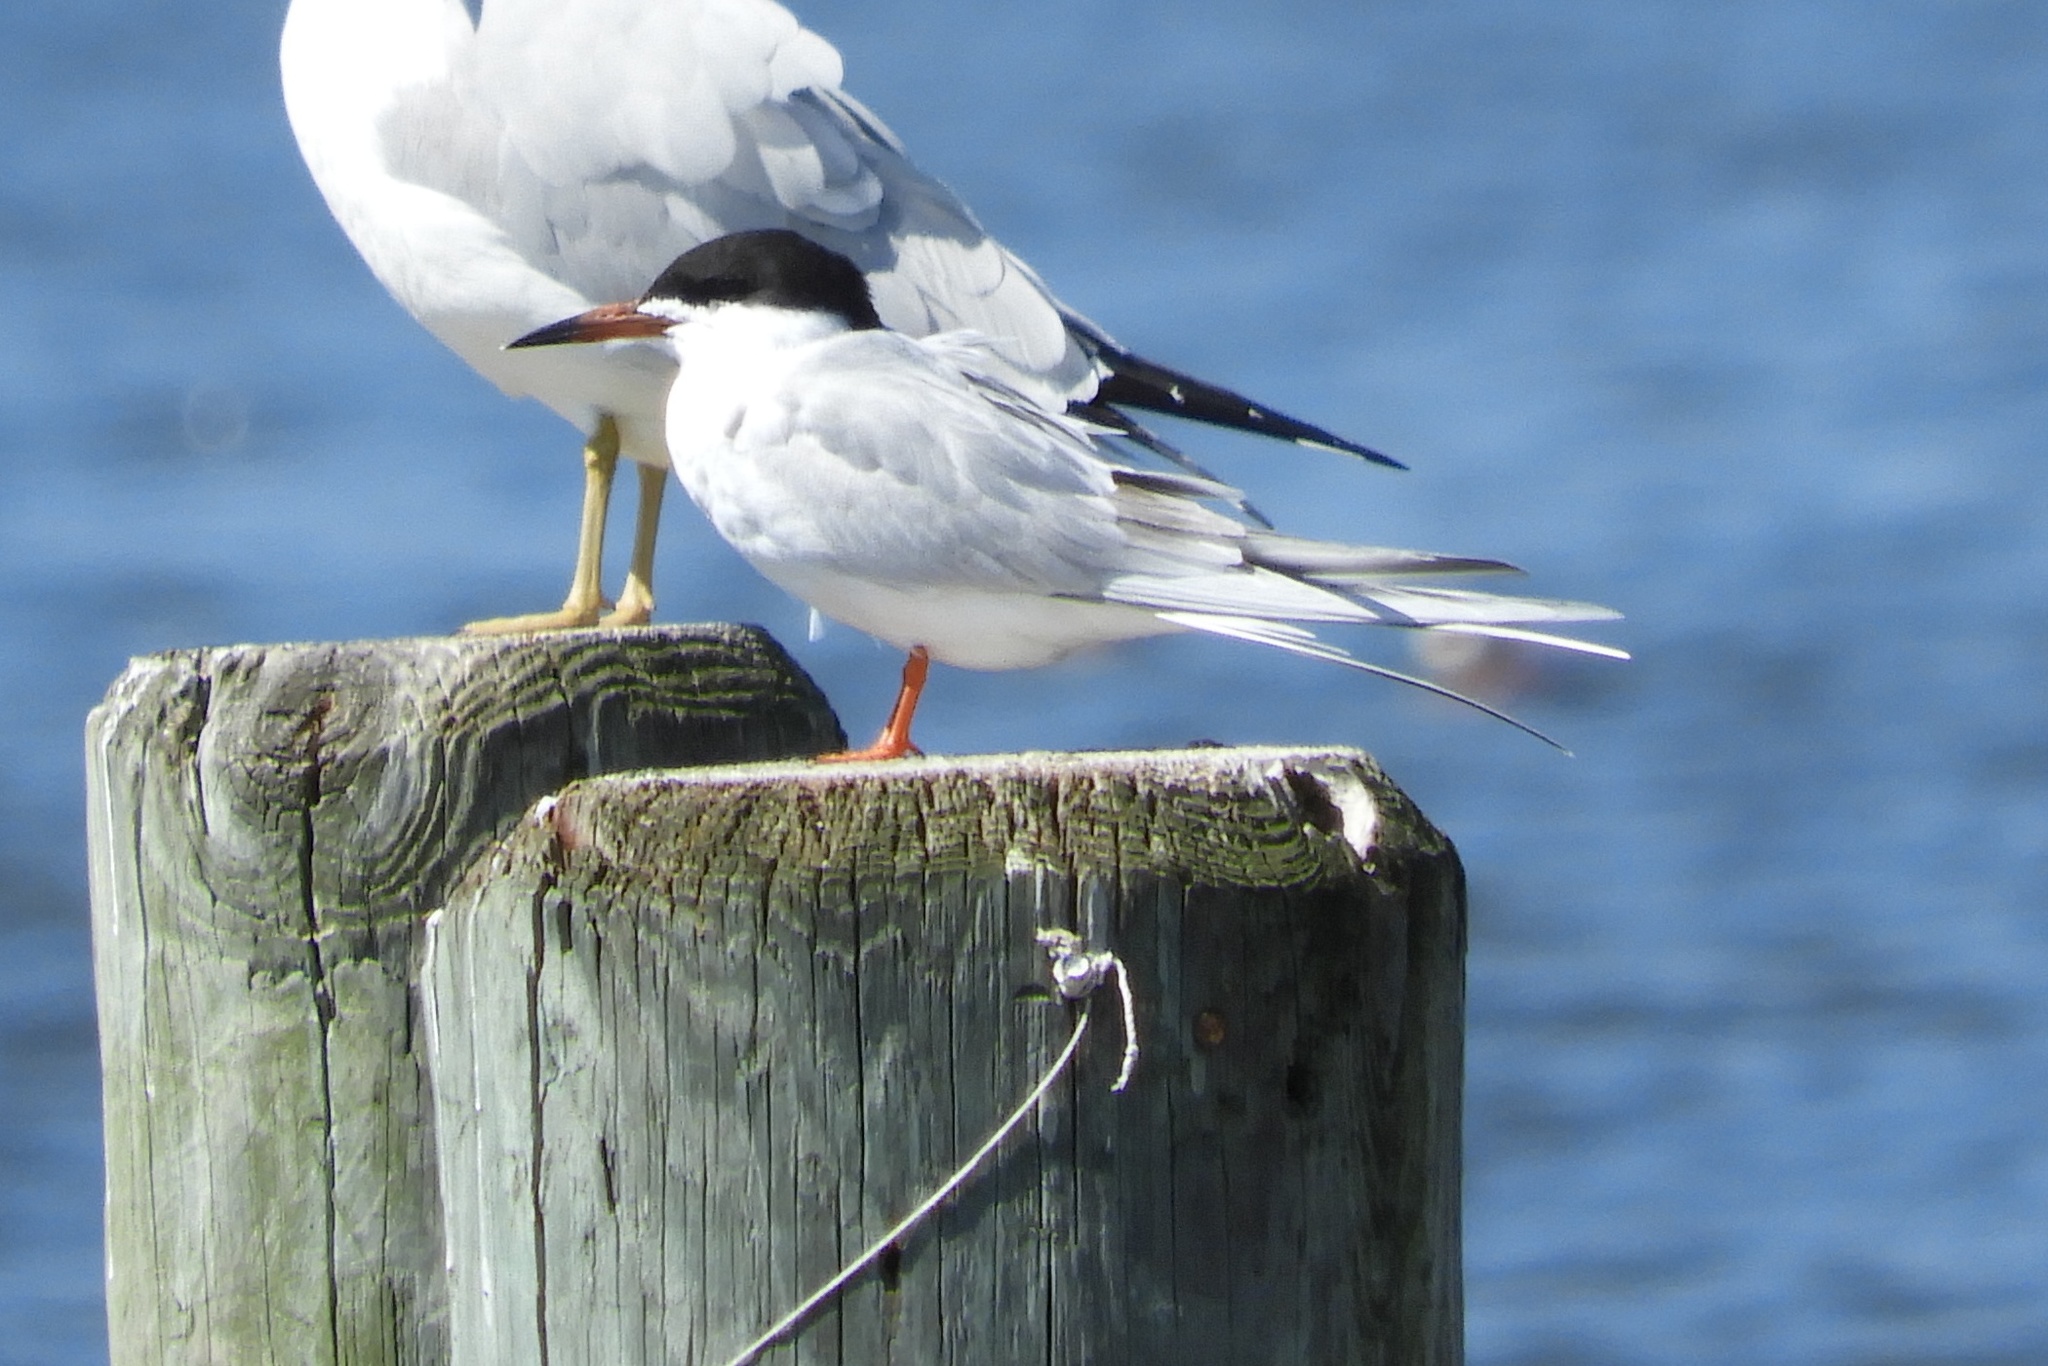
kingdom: Animalia
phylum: Chordata
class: Aves
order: Charadriiformes
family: Laridae
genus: Sterna
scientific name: Sterna forsteri
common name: Forster's tern
